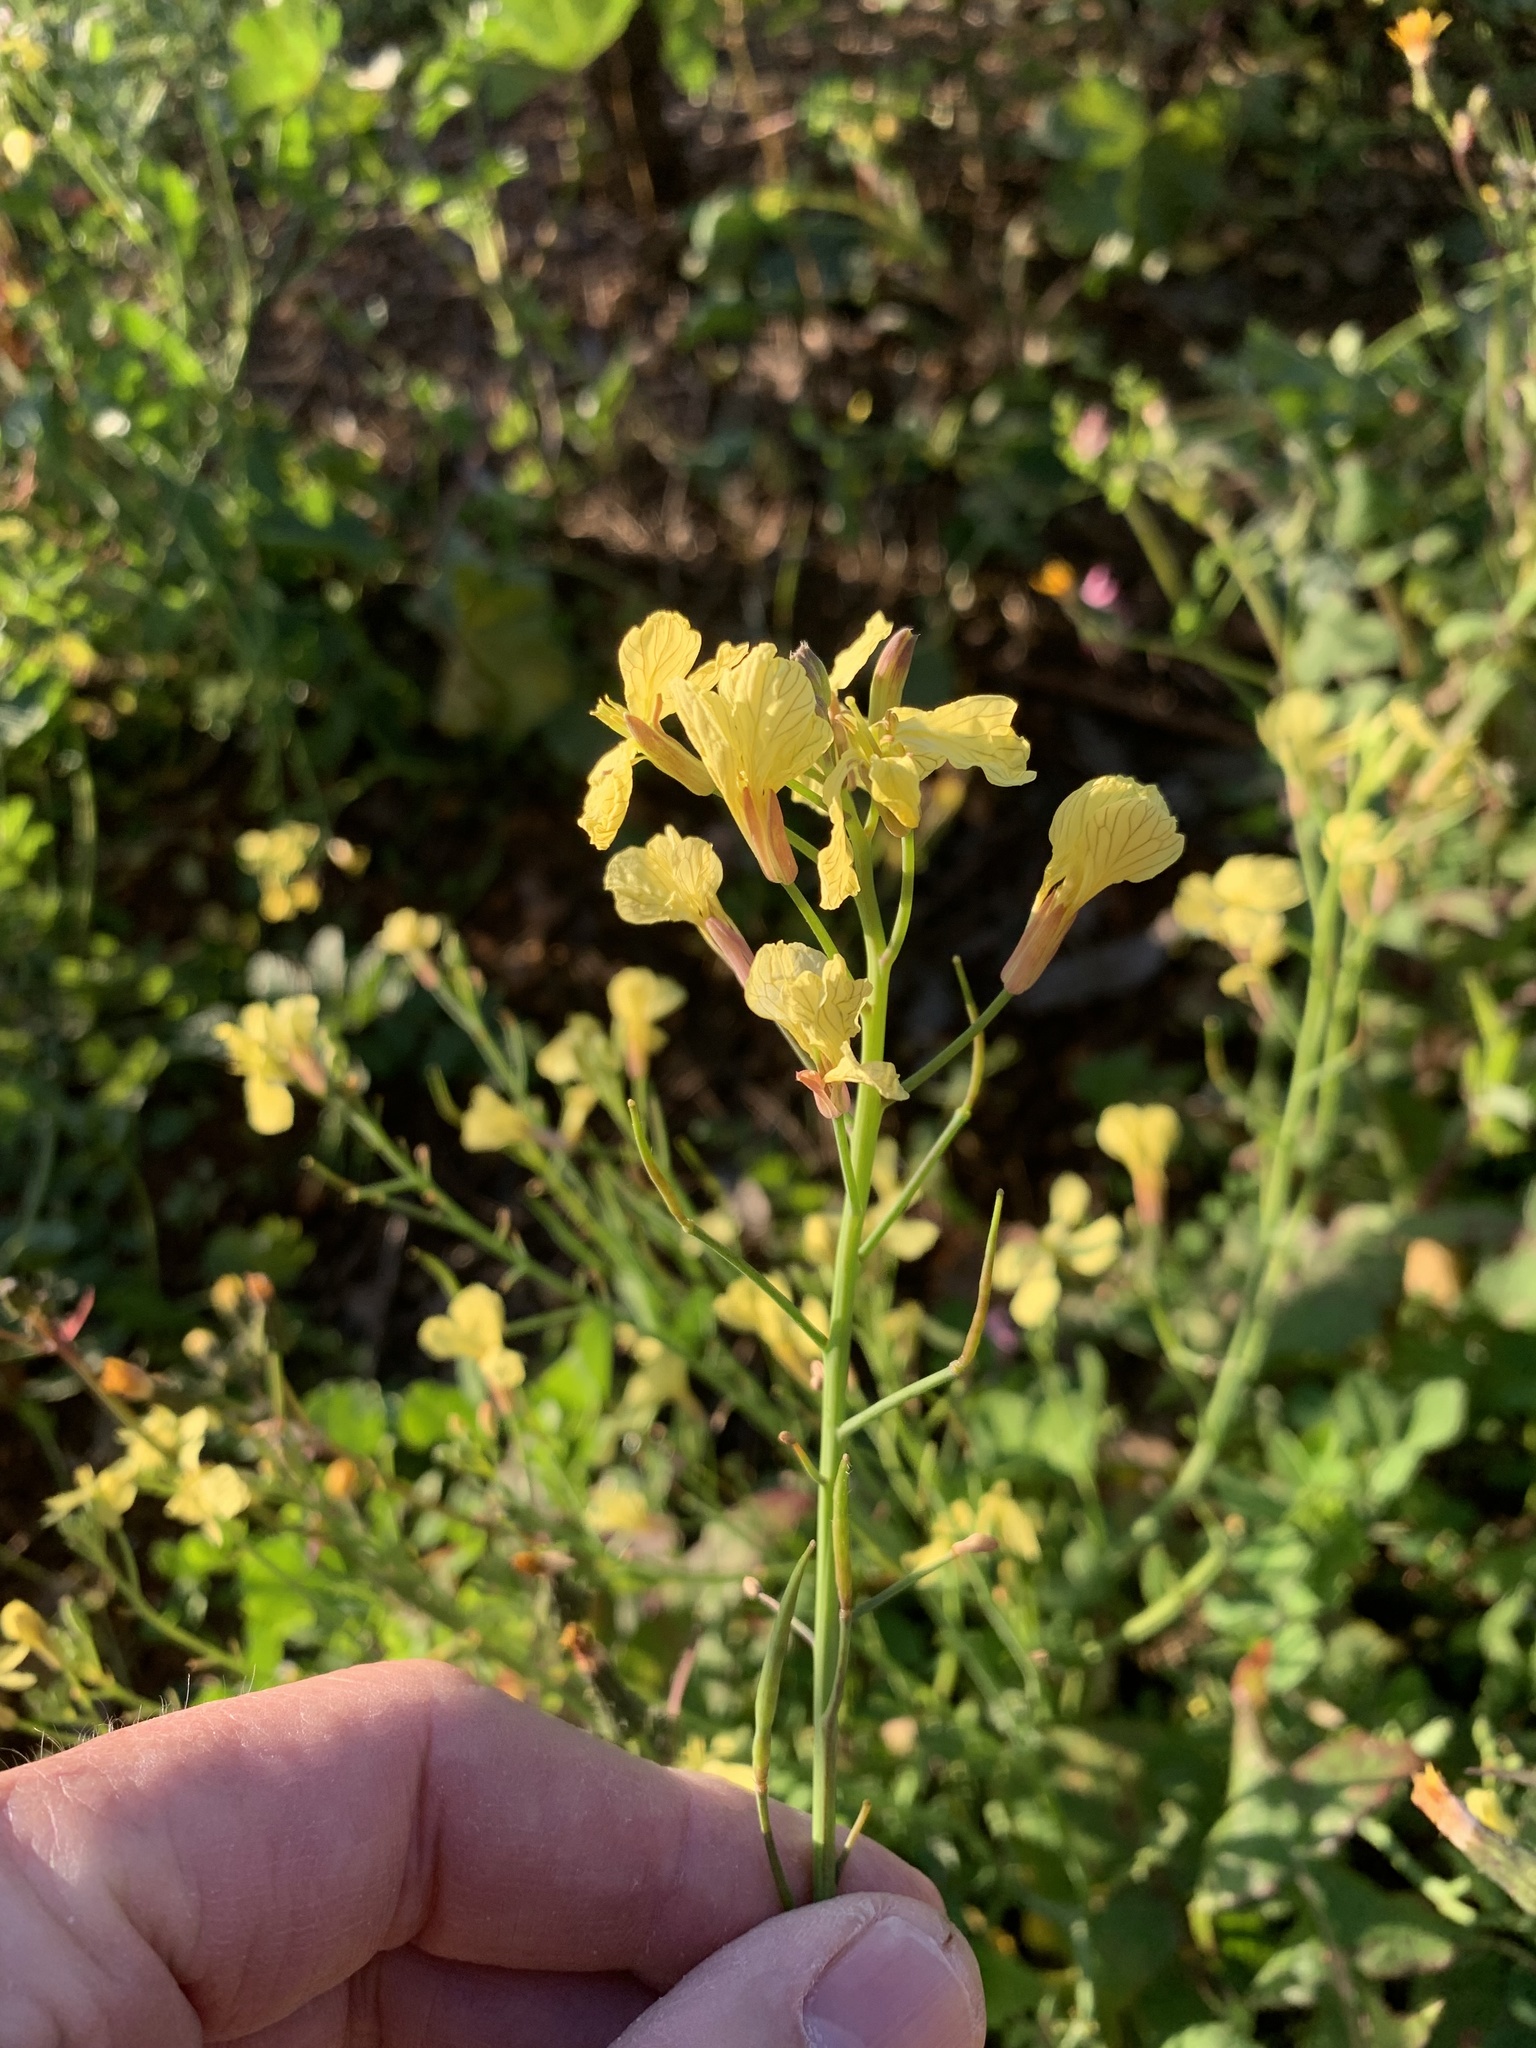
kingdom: Plantae
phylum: Tracheophyta
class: Magnoliopsida
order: Brassicales
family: Brassicaceae
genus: Raphanus
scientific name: Raphanus raphanistrum
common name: Wild radish
